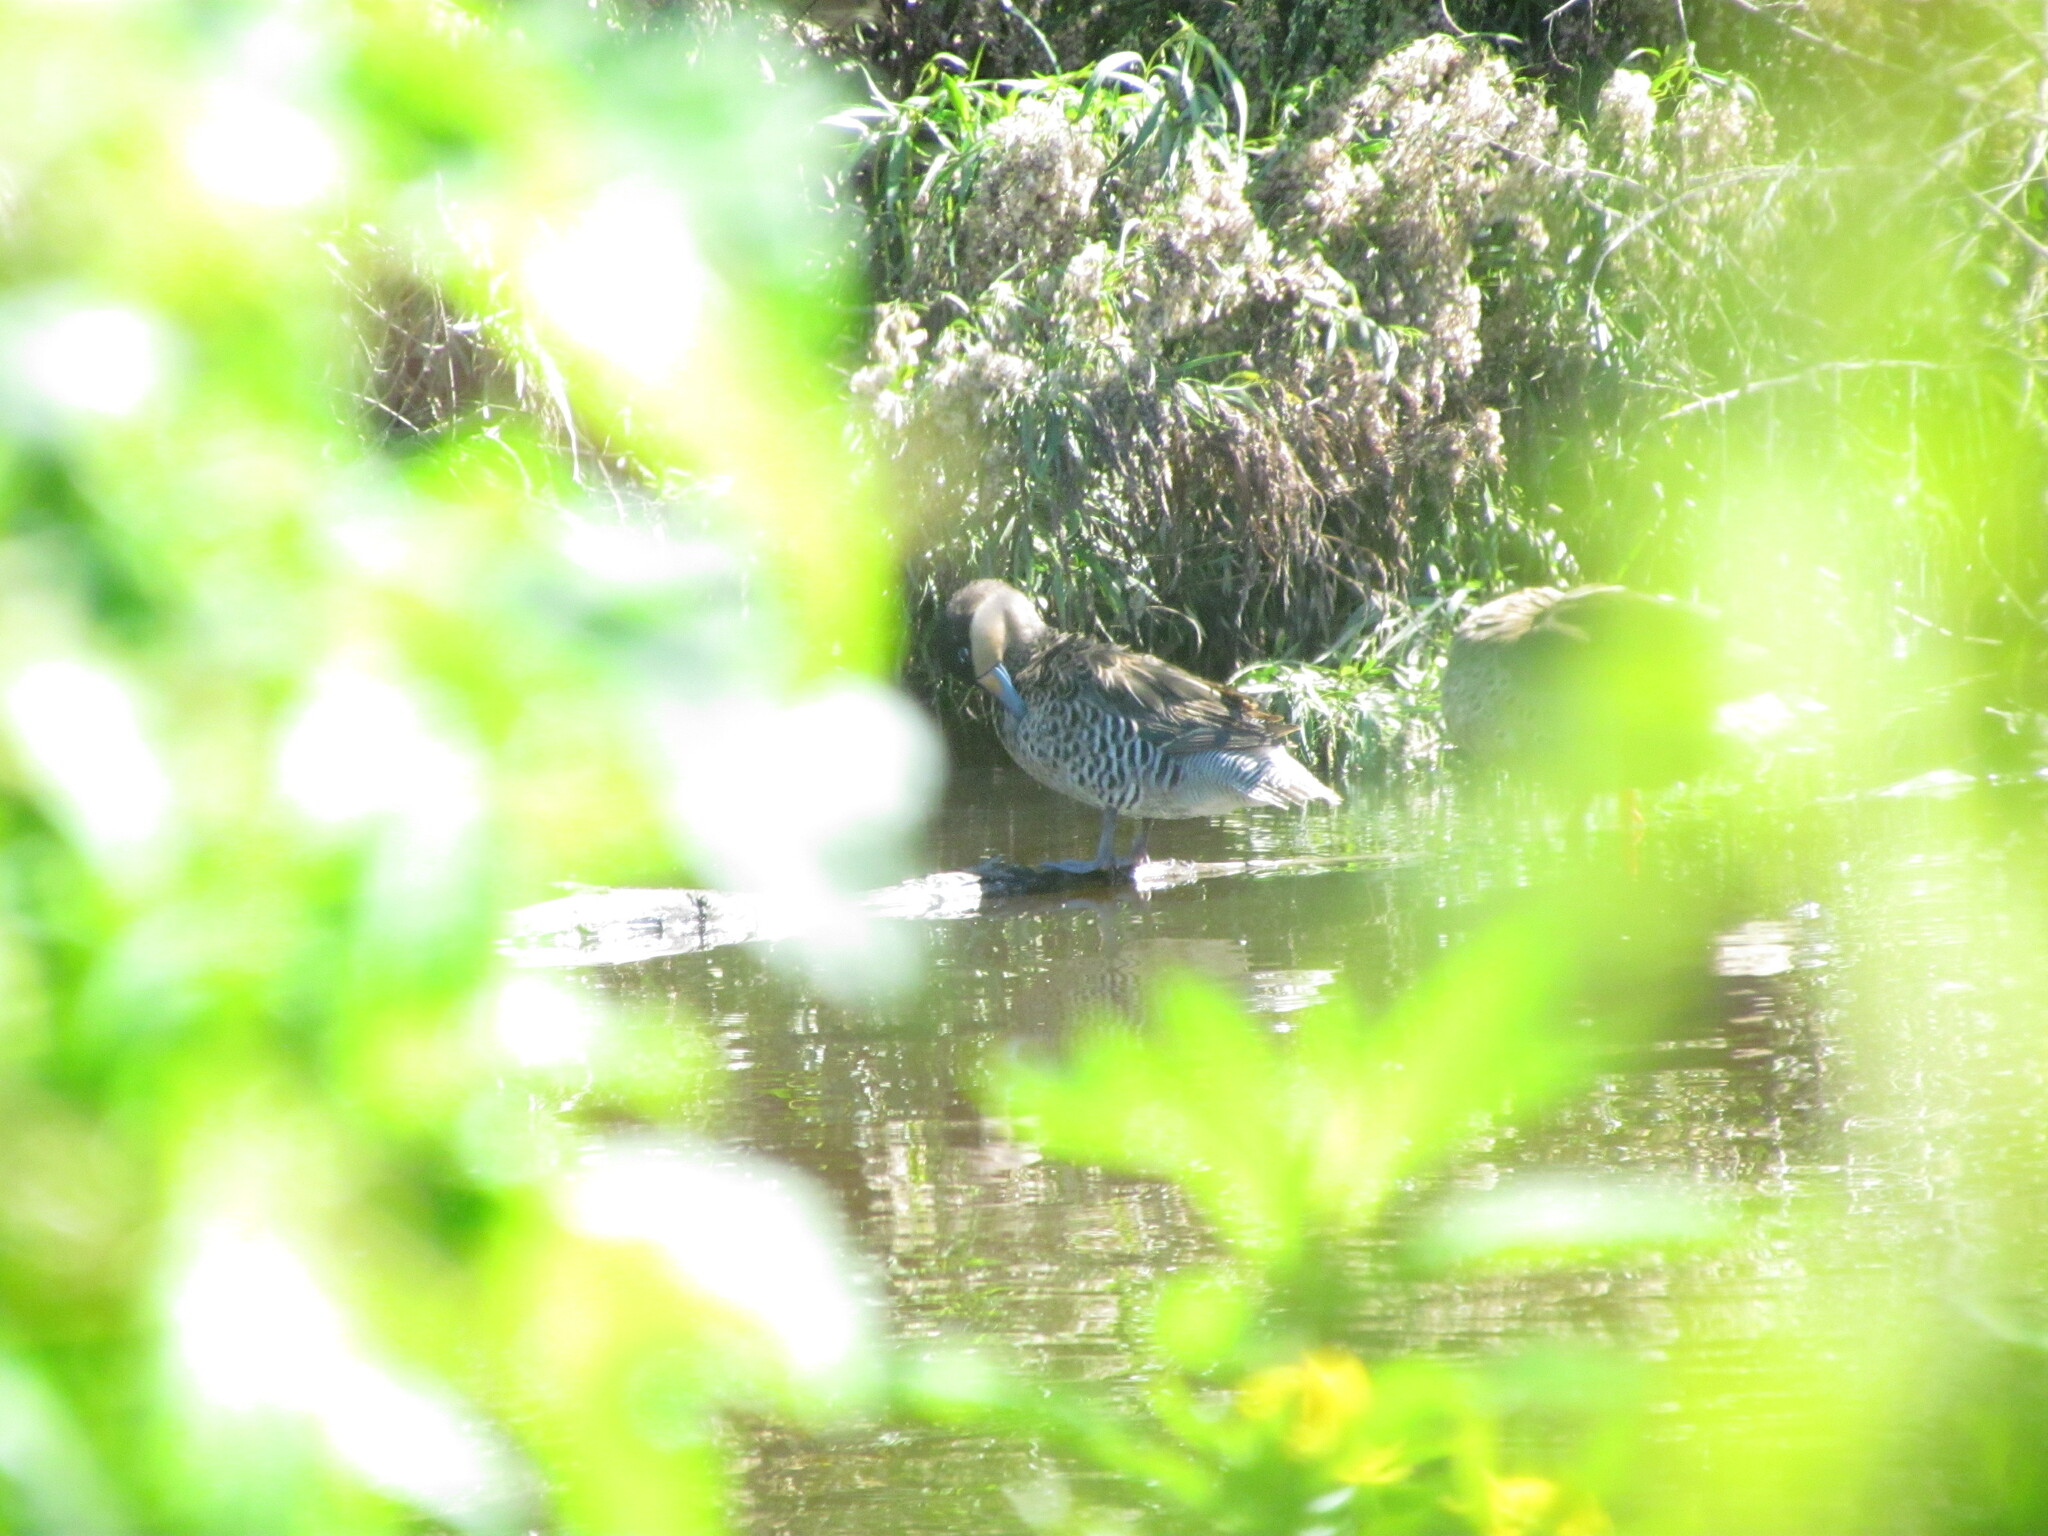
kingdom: Animalia
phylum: Chordata
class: Aves
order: Anseriformes
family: Anatidae
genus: Spatula
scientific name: Spatula versicolor
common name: Silver teal
